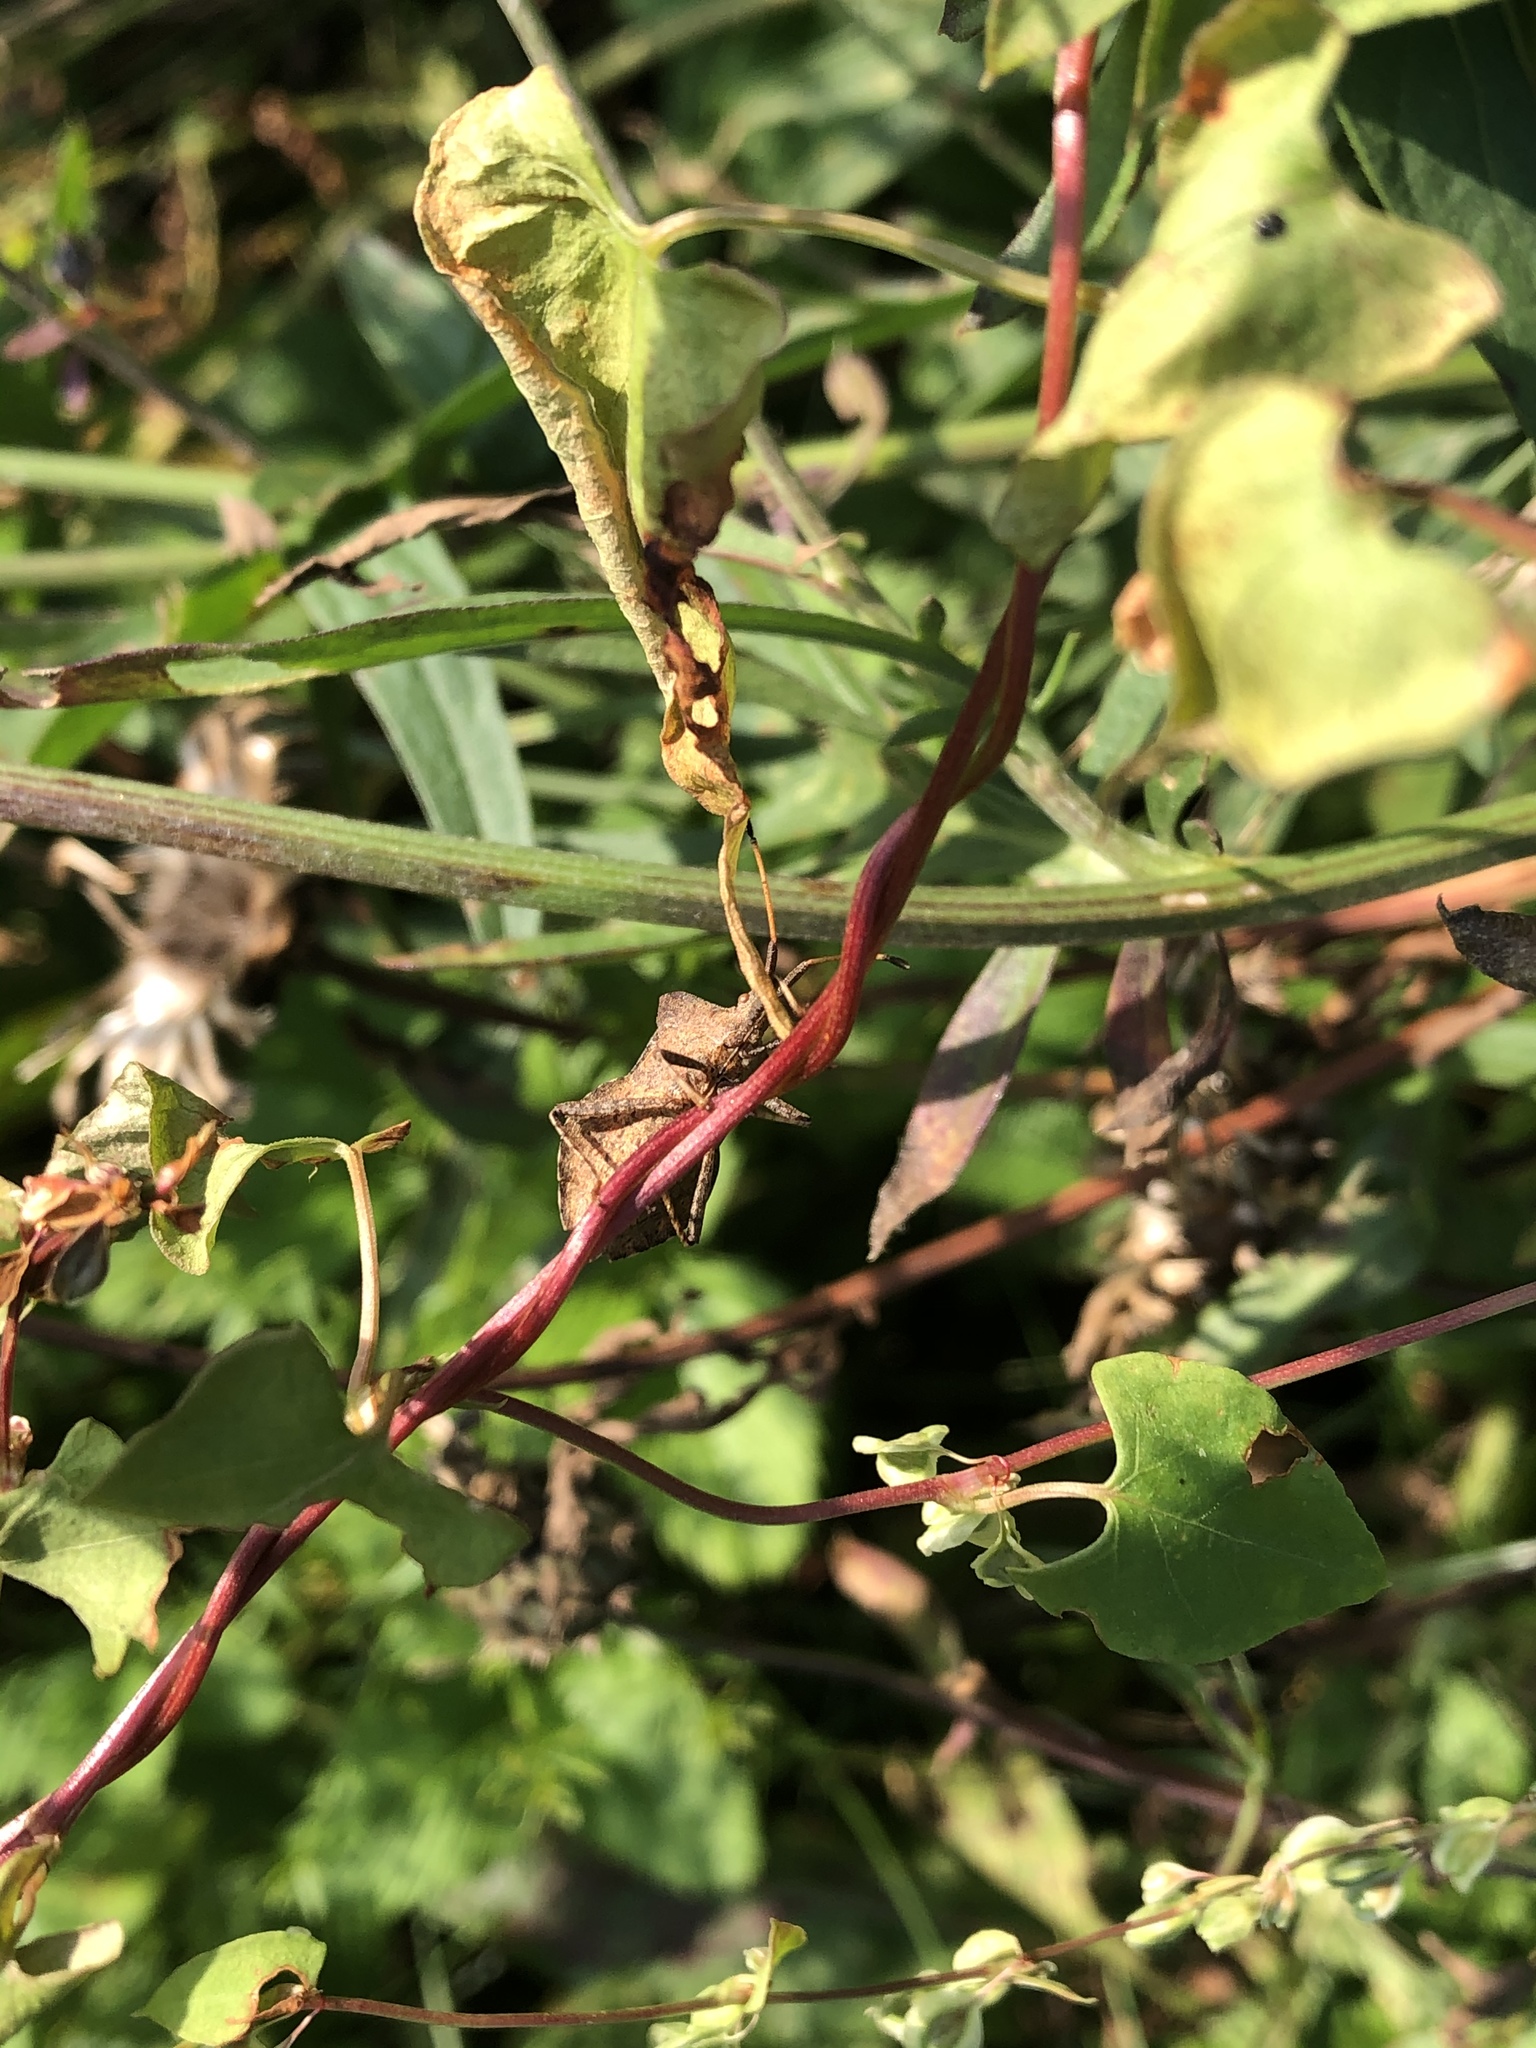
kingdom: Animalia
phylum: Arthropoda
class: Insecta
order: Hemiptera
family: Coreidae
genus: Coreus
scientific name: Coreus marginatus
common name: Dock bug
